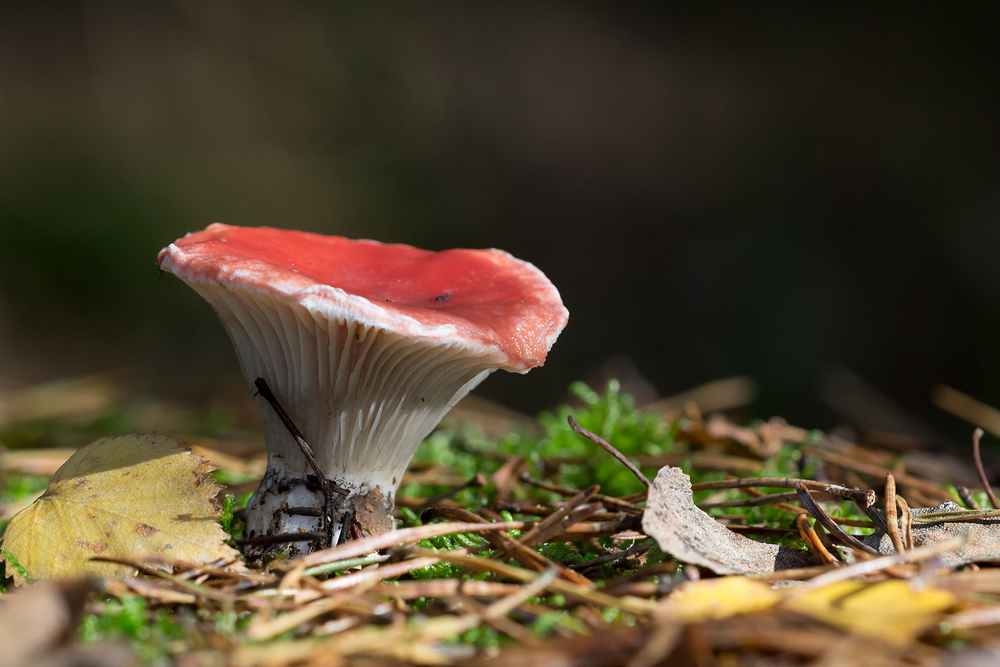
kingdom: Fungi
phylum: Basidiomycota
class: Agaricomycetes
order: Boletales
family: Gomphidiaceae
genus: Gomphidius
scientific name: Gomphidius roseus
